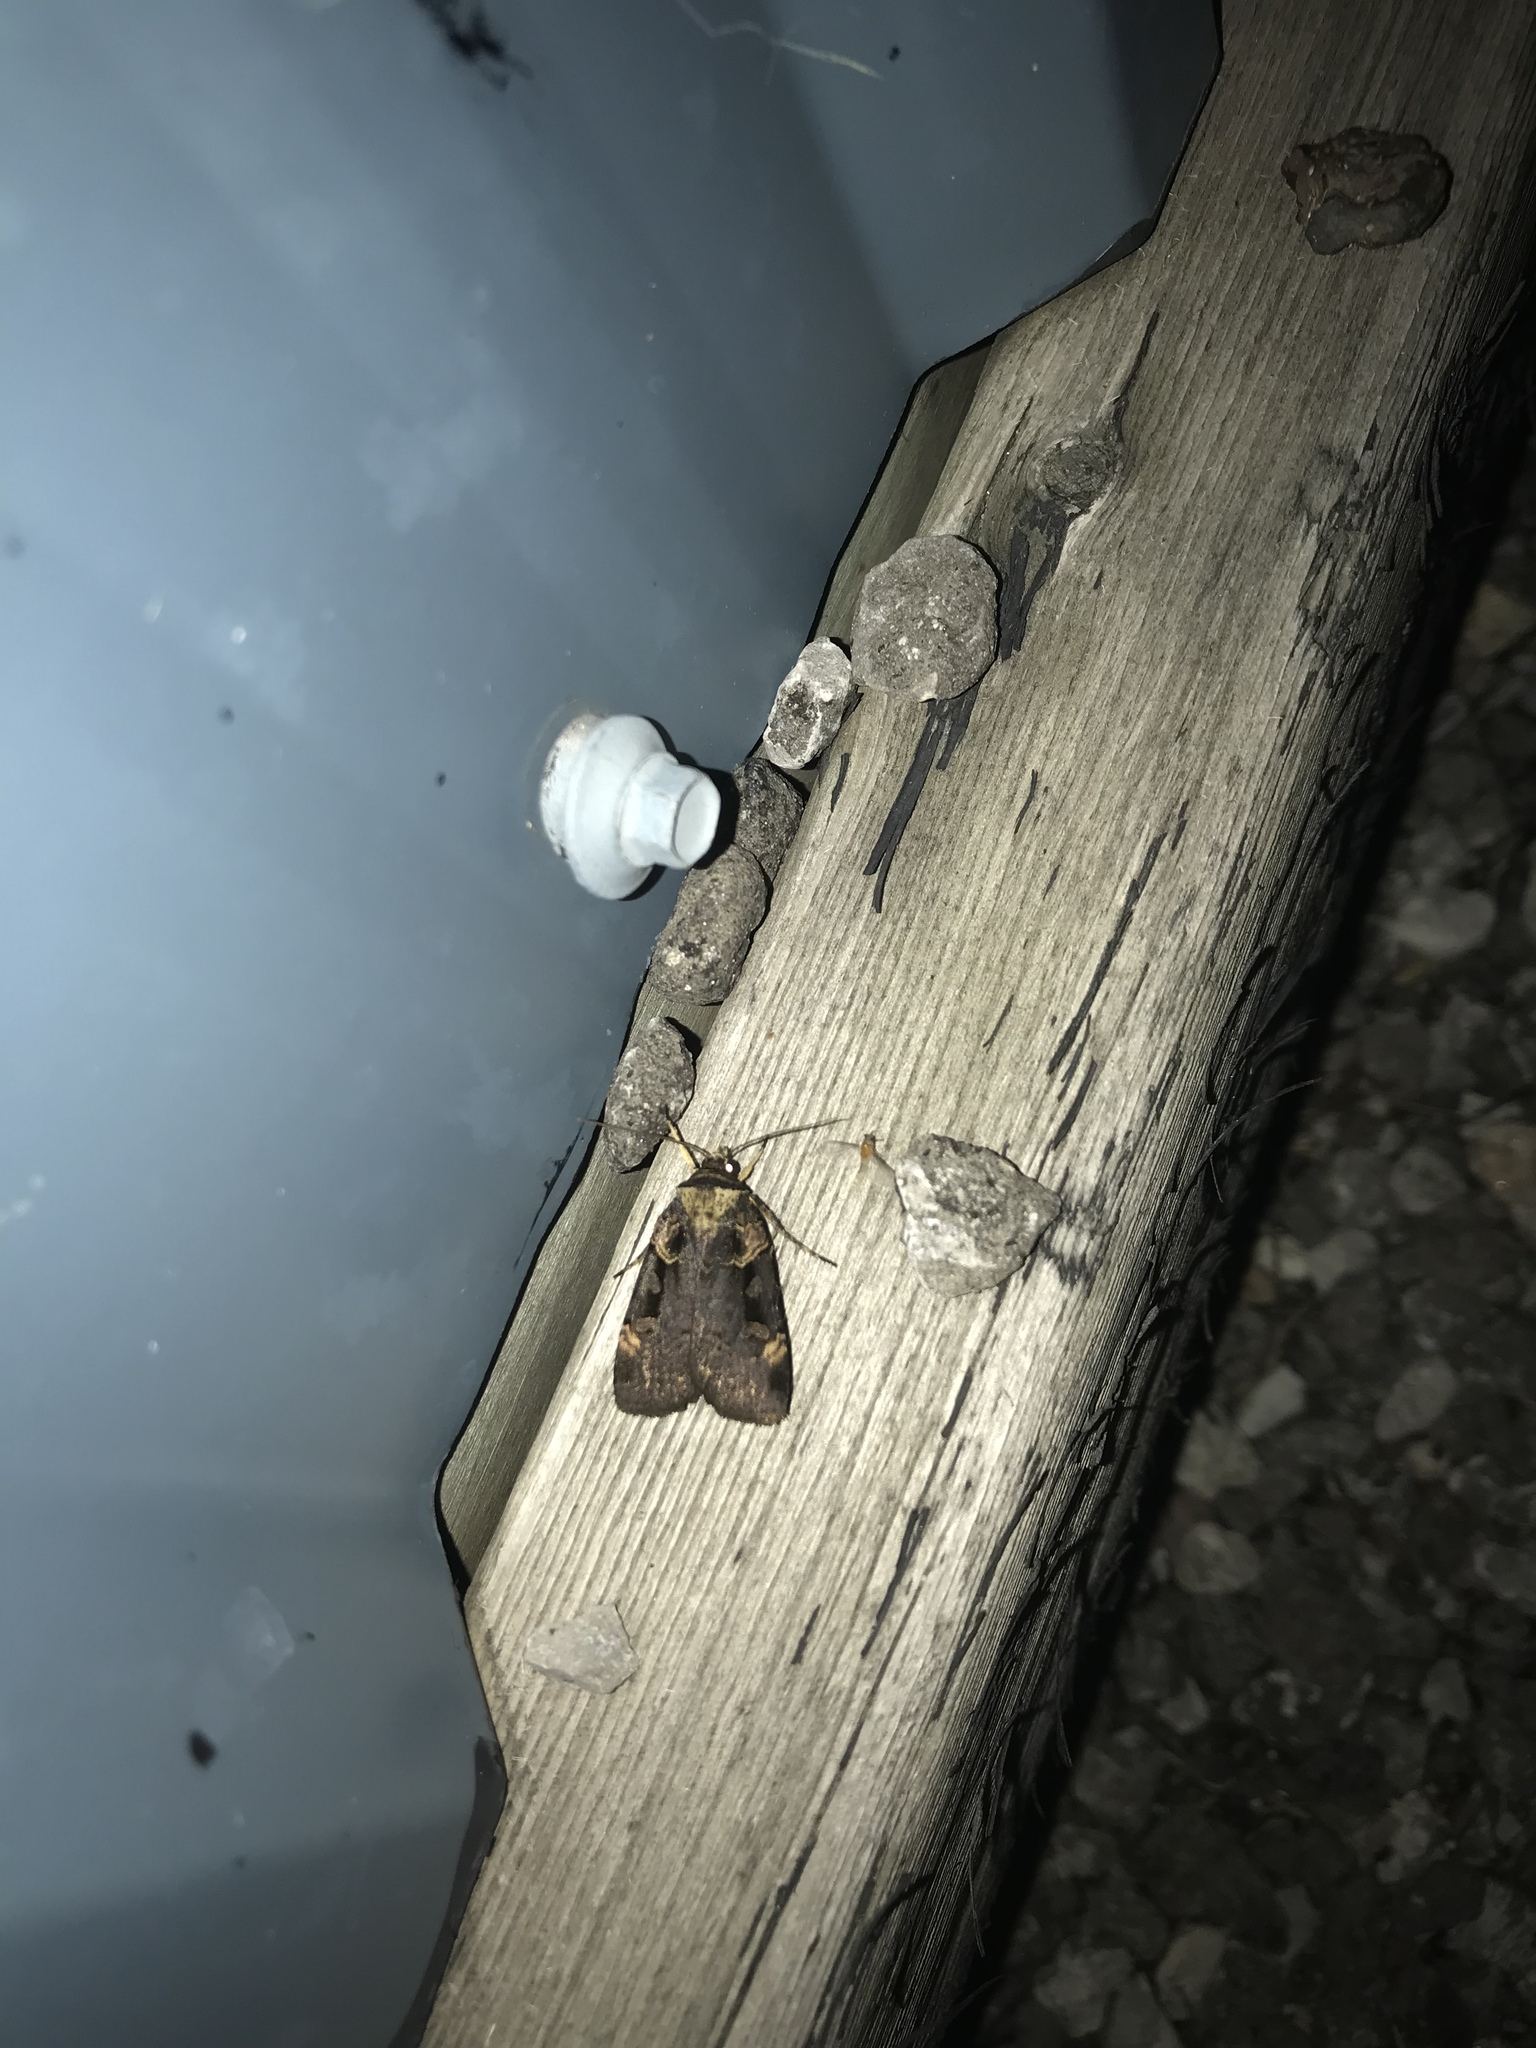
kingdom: Animalia
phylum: Arthropoda
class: Insecta
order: Lepidoptera
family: Noctuidae
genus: Pseudohermonassa
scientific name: Pseudohermonassa bicarnea
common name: Pink spotted dart
